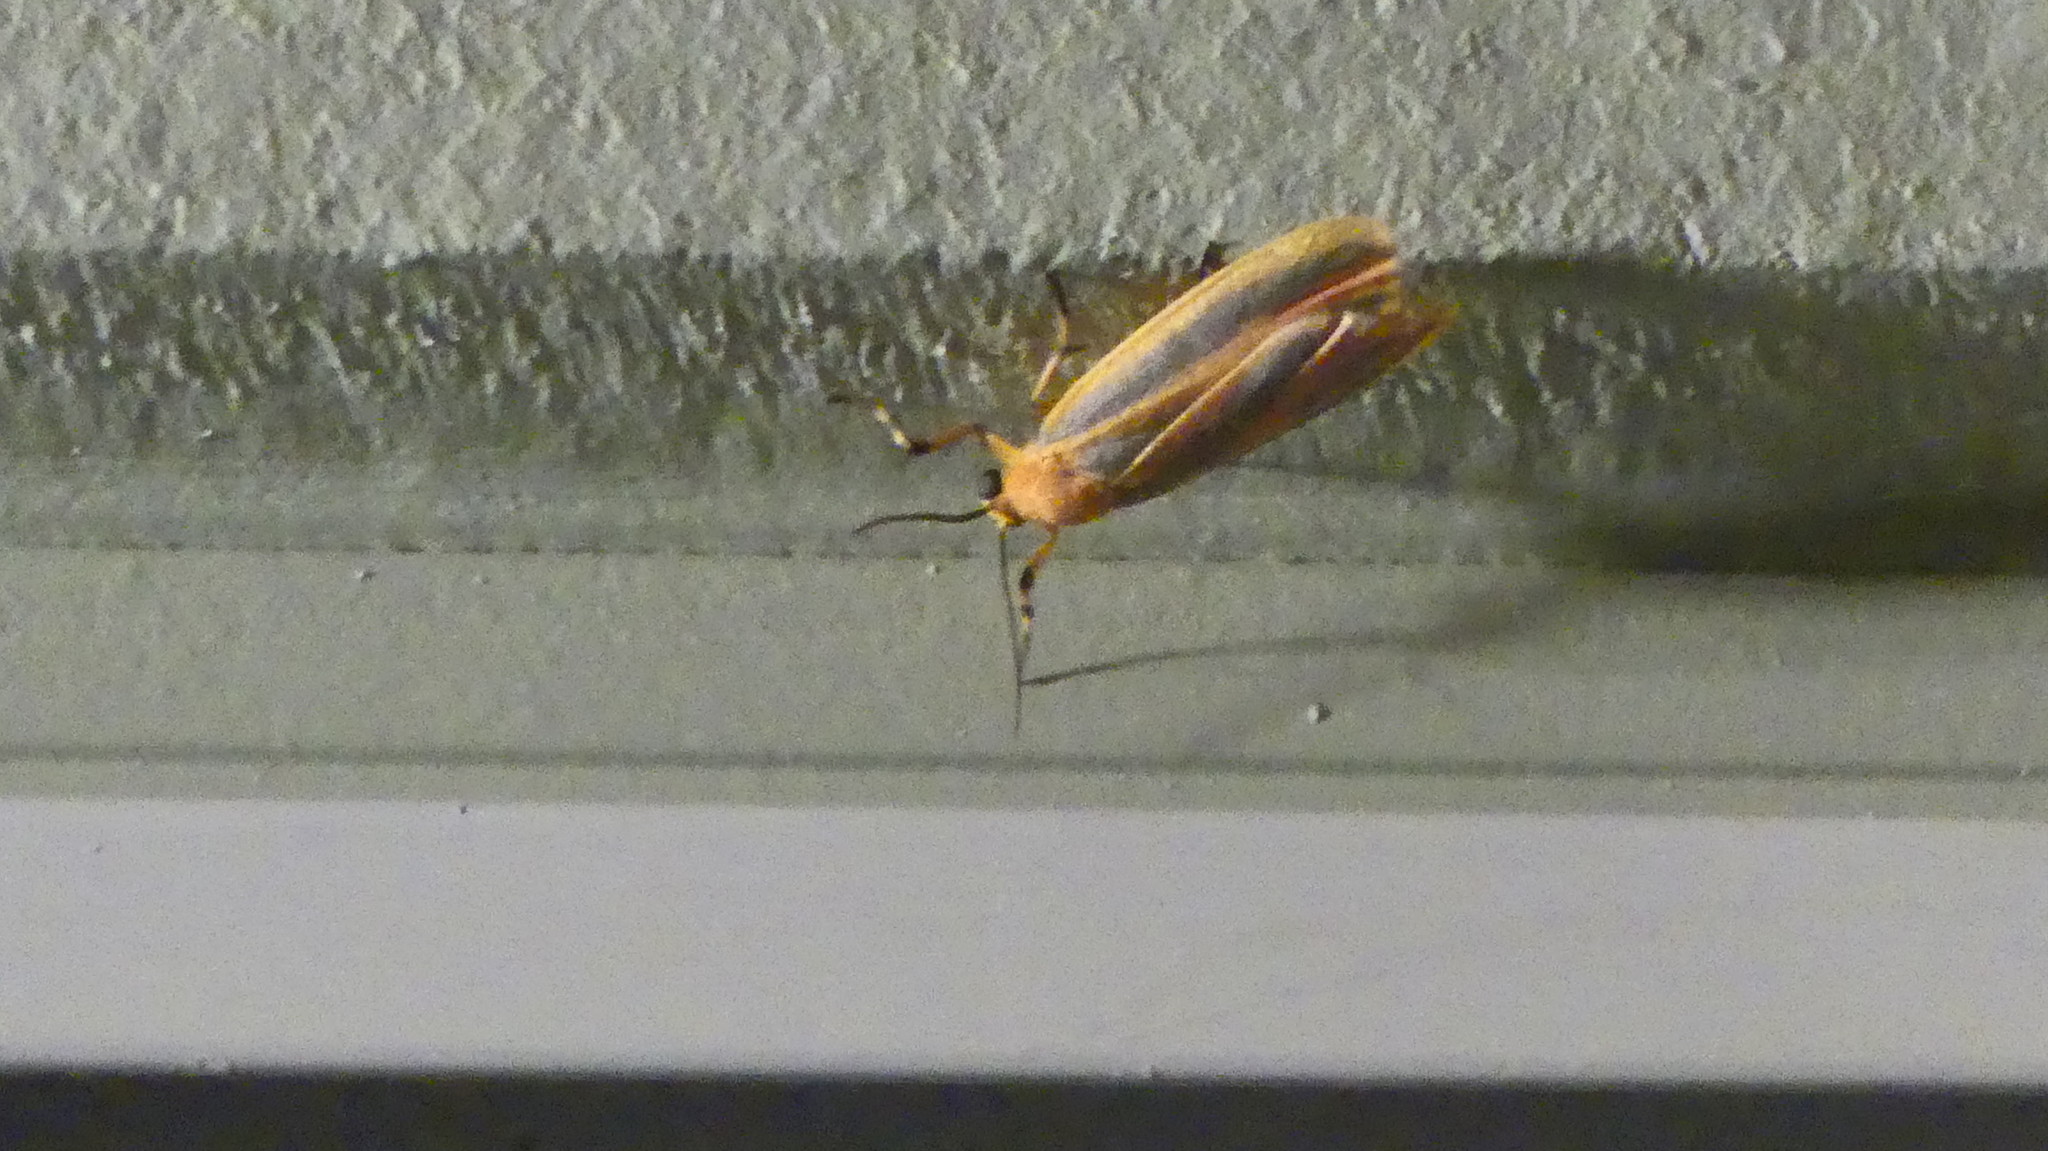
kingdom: Animalia
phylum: Arthropoda
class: Insecta
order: Lepidoptera
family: Erebidae
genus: Hypoprepia
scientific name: Hypoprepia fucosa
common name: Painted lichen moth
